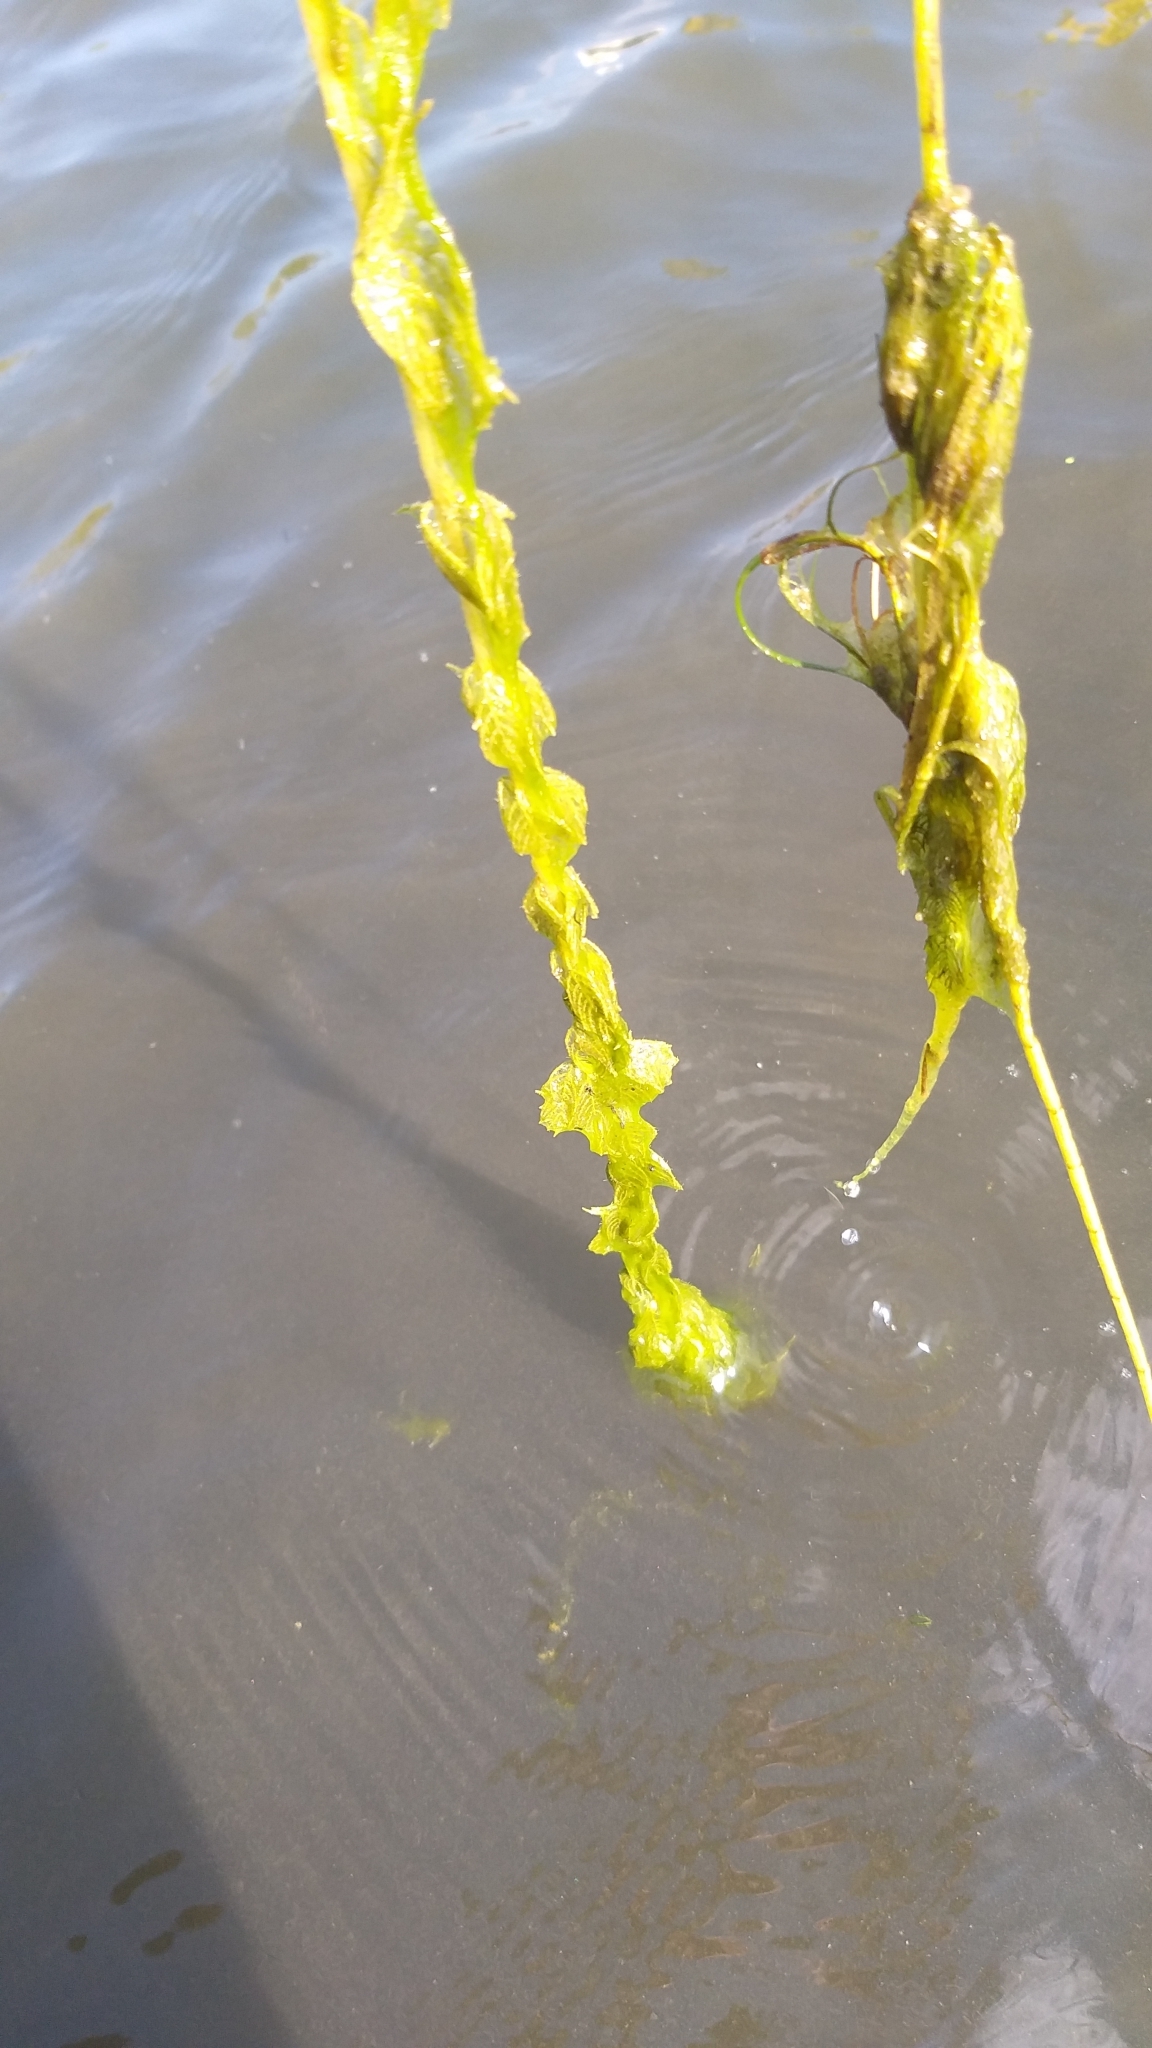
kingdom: Plantae
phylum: Tracheophyta
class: Magnoliopsida
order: Saxifragales
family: Haloragaceae
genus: Myriophyllum
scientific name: Myriophyllum sibiricum
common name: Siberian water-milfoil
